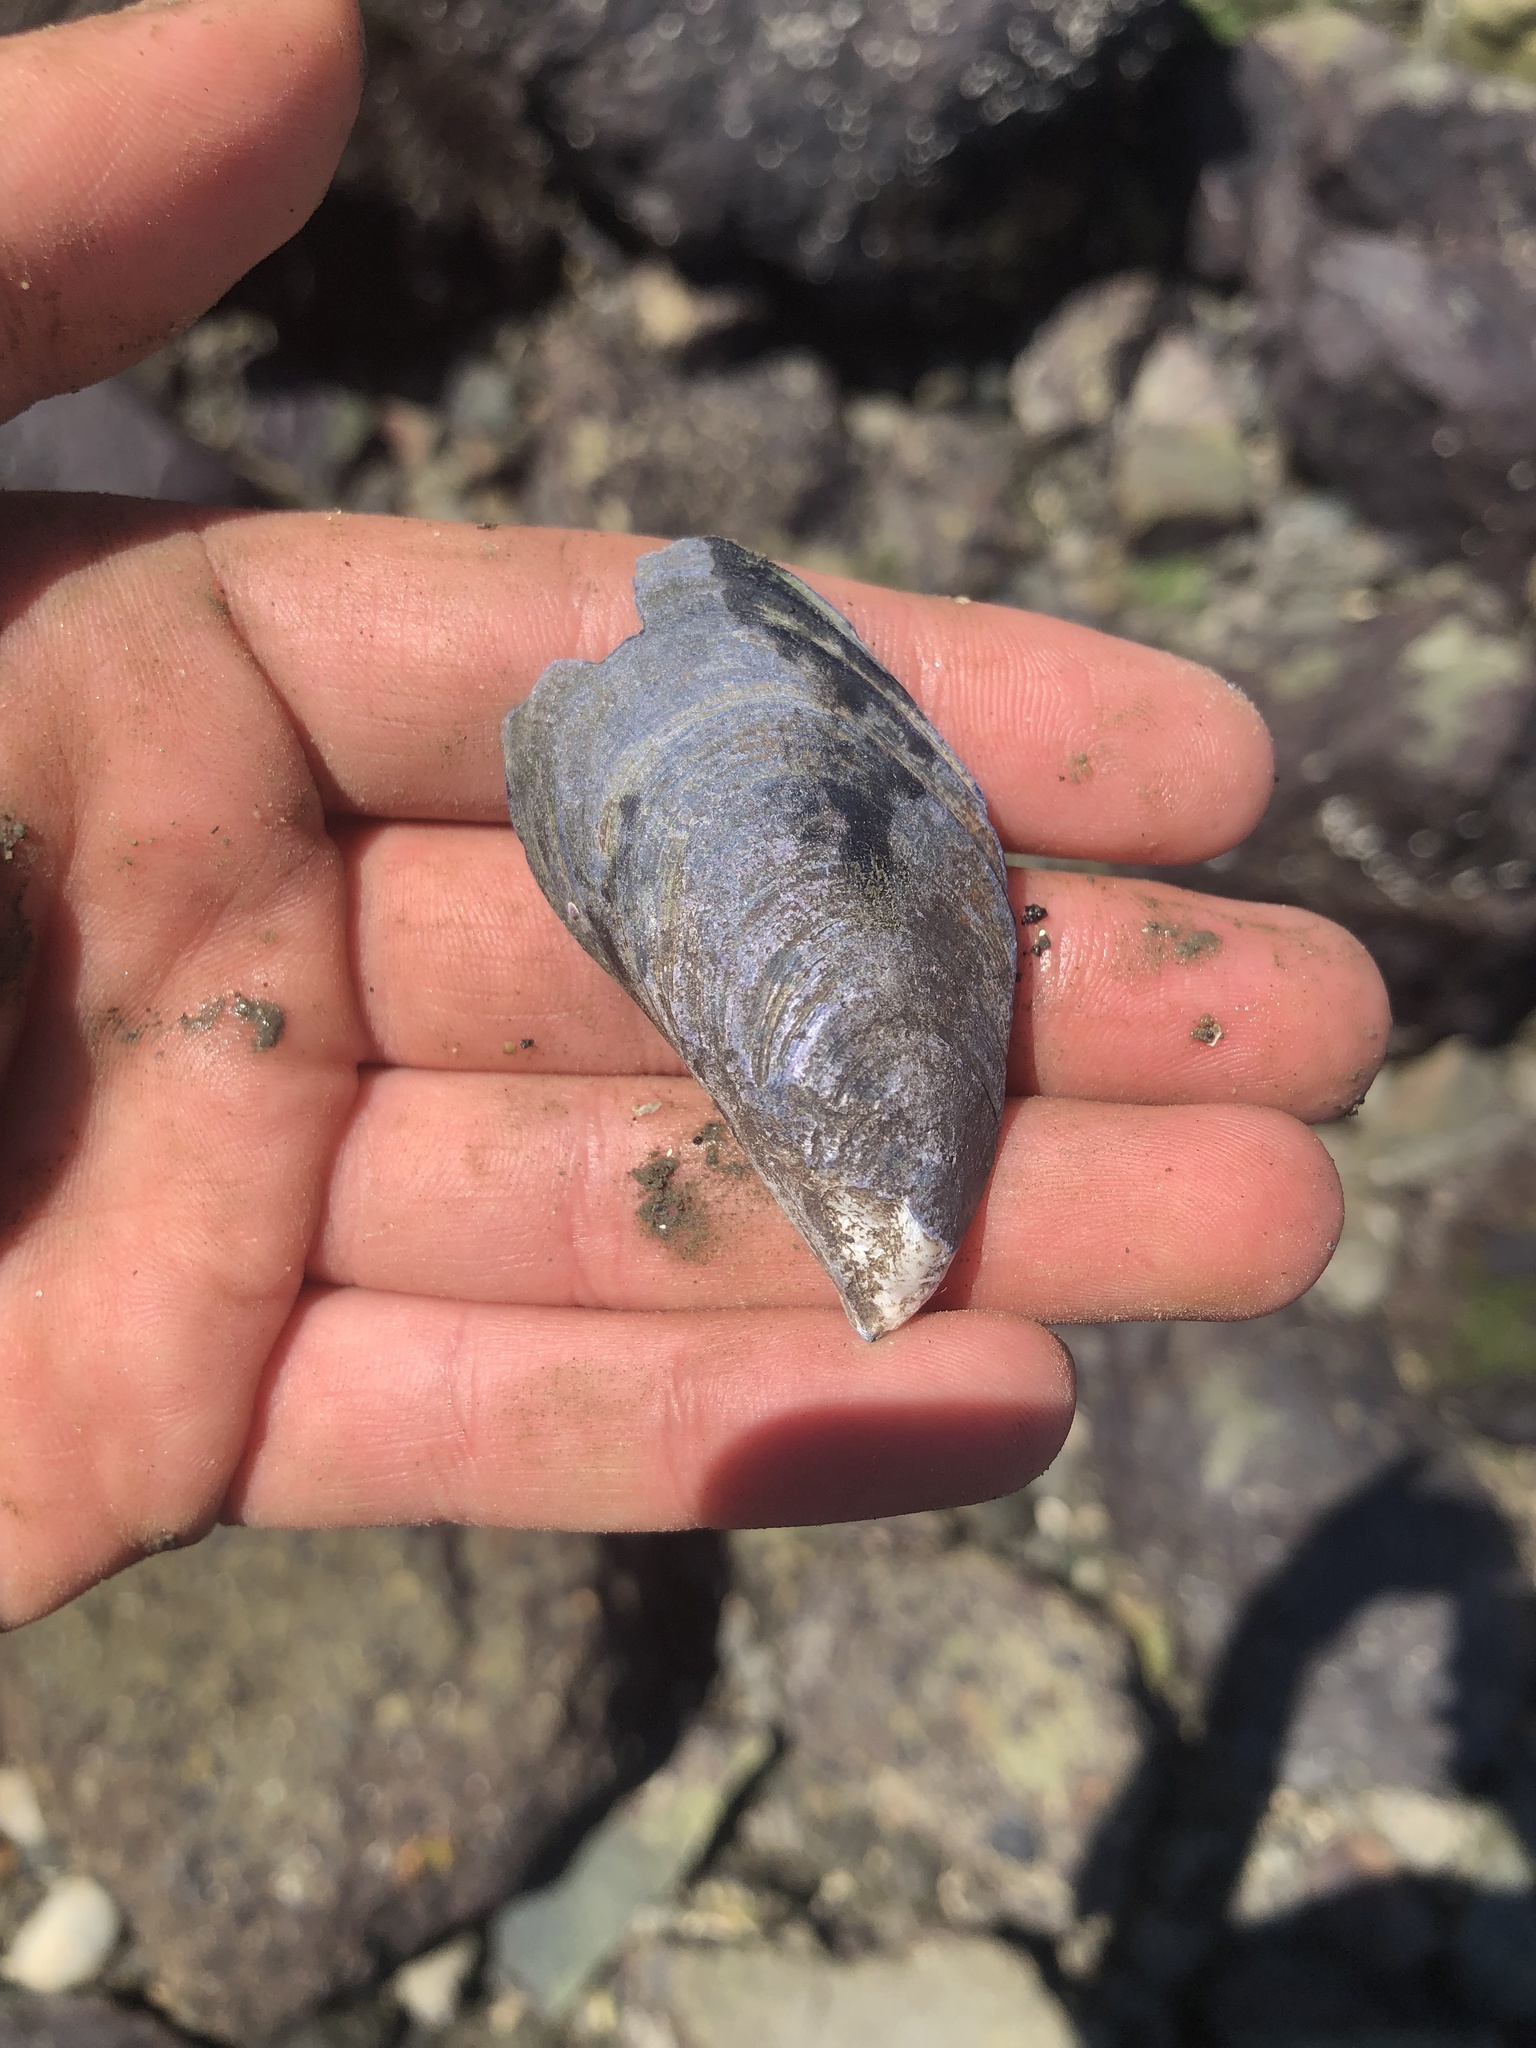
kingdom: Animalia
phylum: Mollusca
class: Bivalvia
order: Mytilida
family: Mytilidae
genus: Mytilus
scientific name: Mytilus
